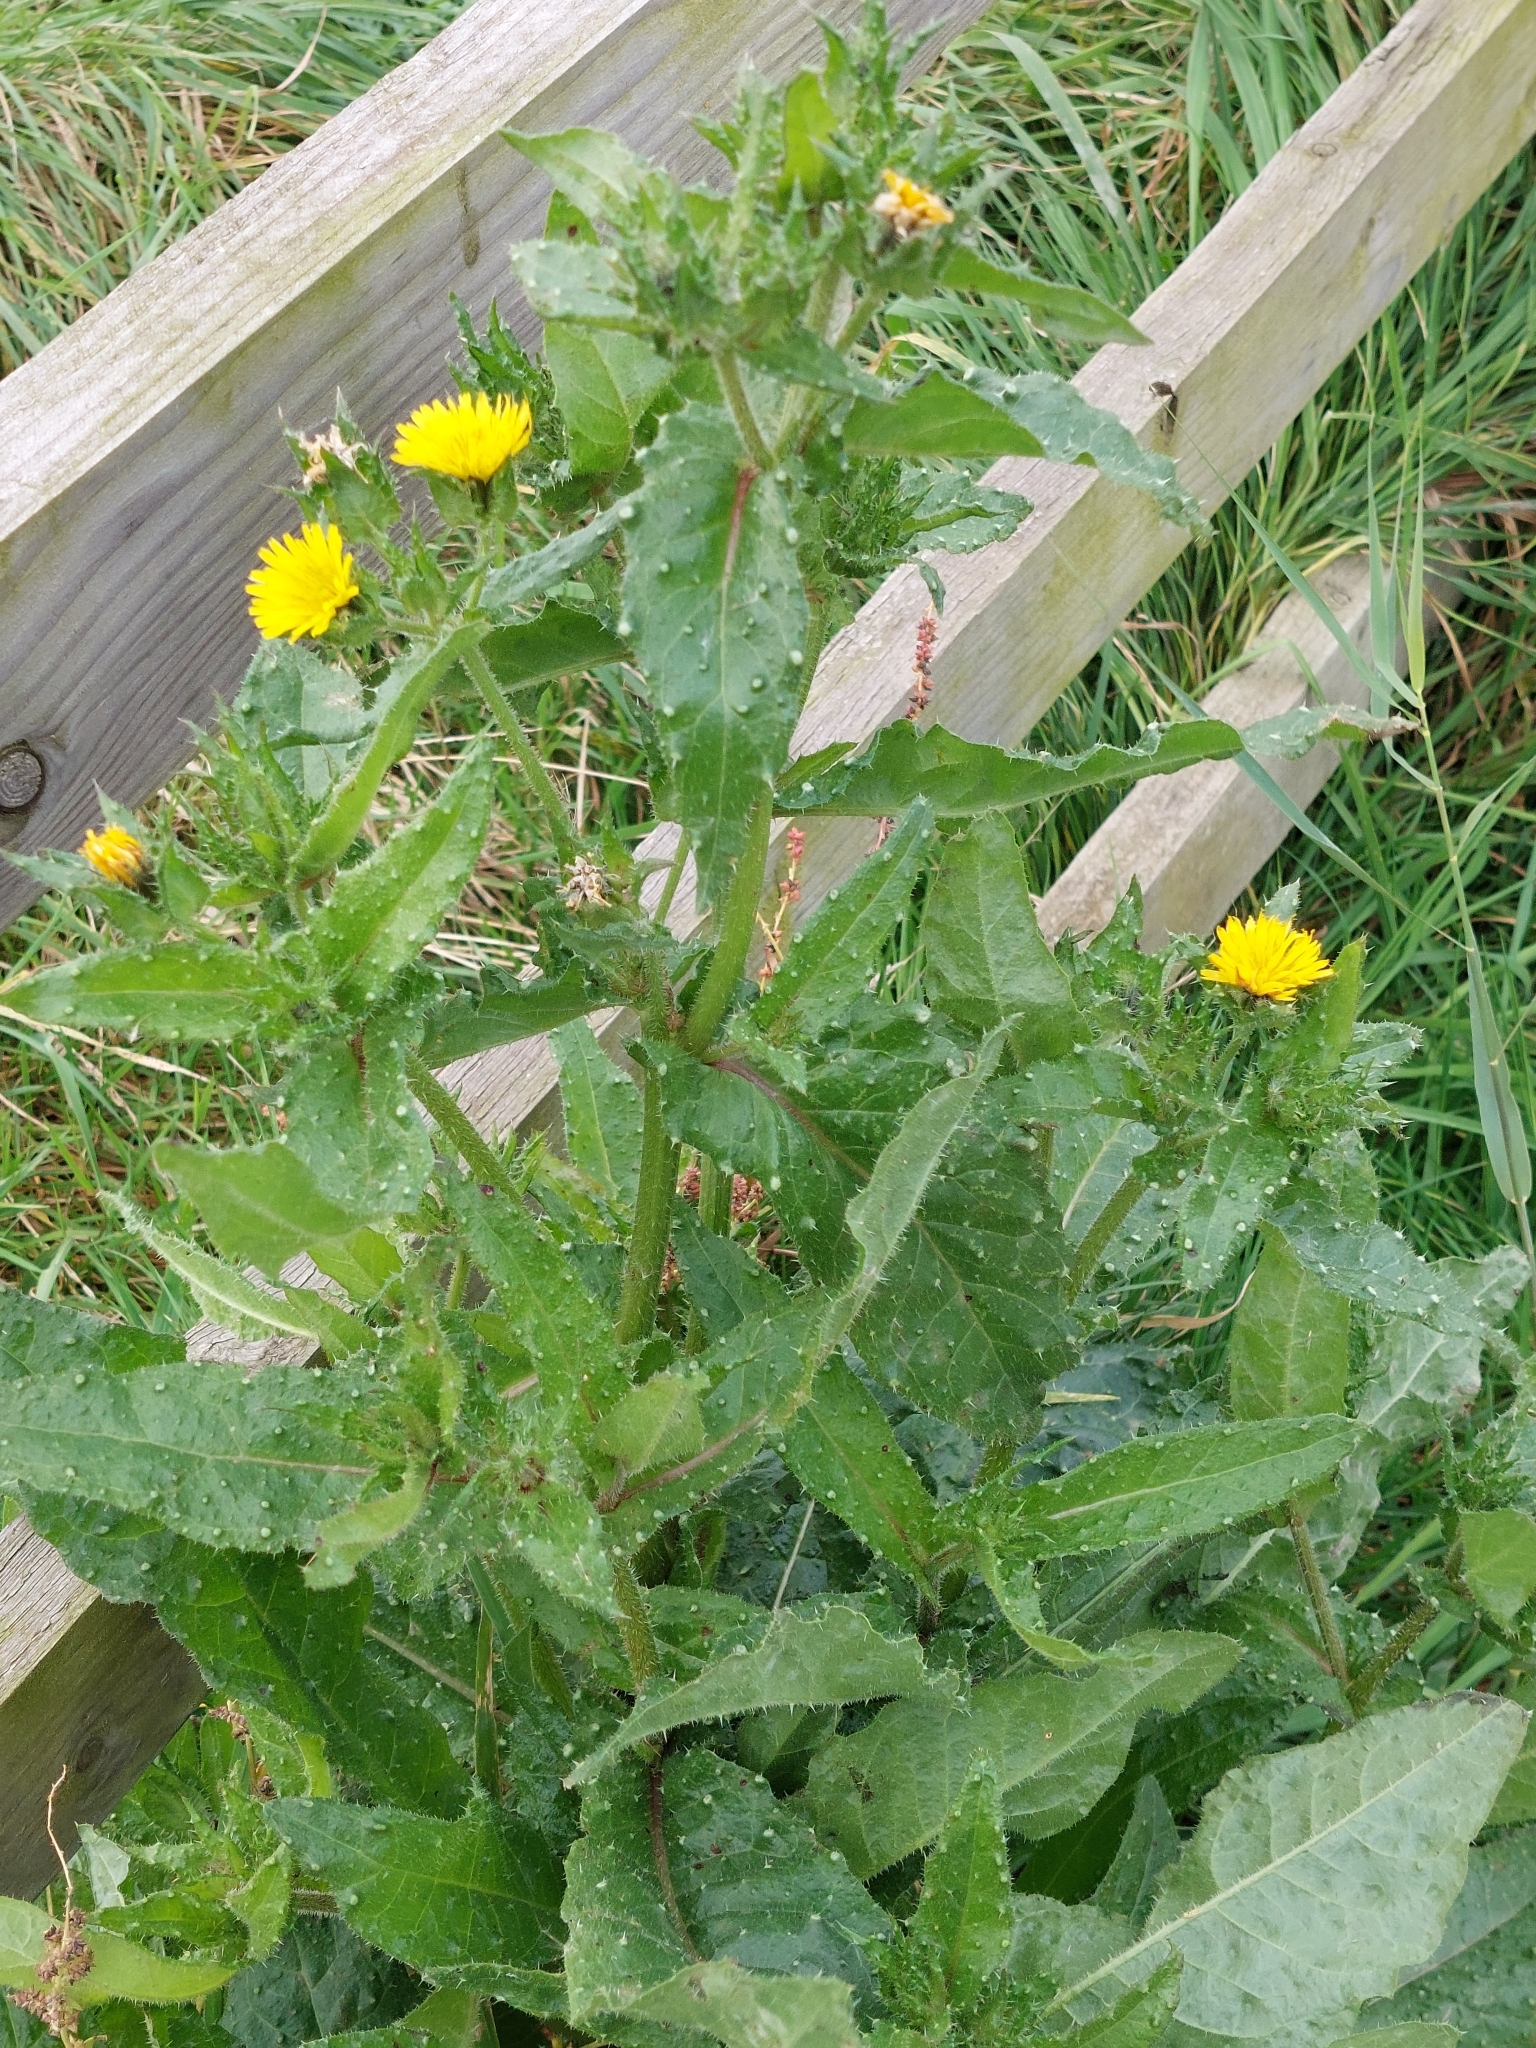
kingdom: Plantae
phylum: Tracheophyta
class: Magnoliopsida
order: Asterales
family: Asteraceae
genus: Helminthotheca
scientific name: Helminthotheca echioides
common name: Ox-tongue
